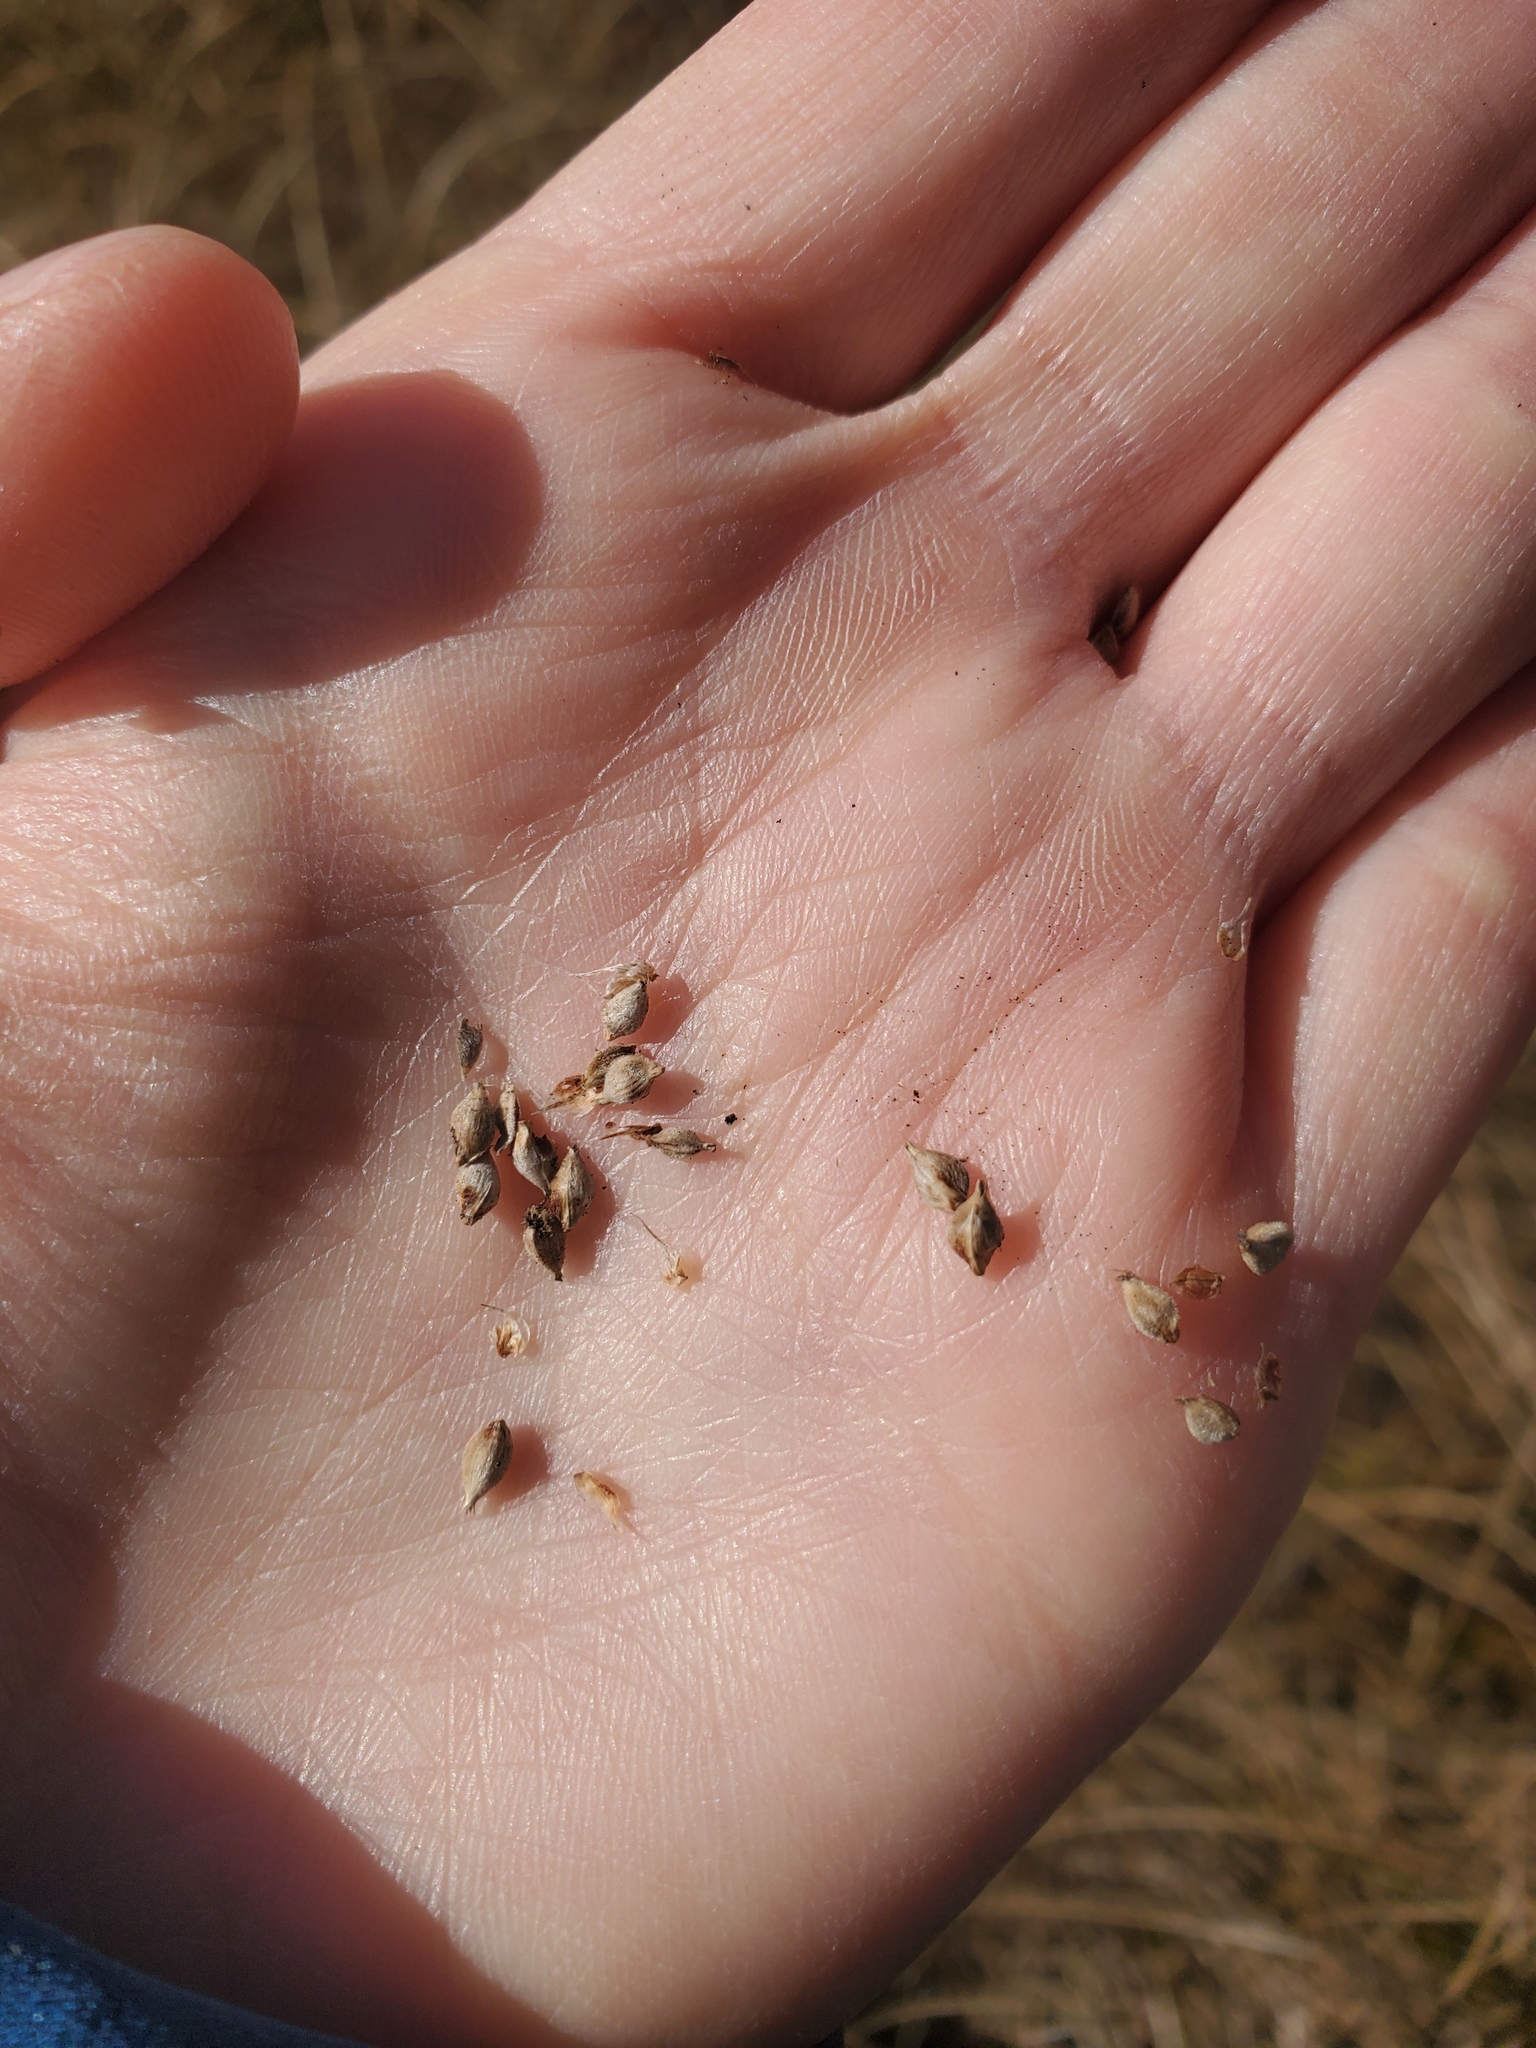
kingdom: Plantae
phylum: Tracheophyta
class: Liliopsida
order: Poales
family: Cyperaceae
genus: Carex
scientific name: Carex lasiocarpa
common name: Slender sedge
